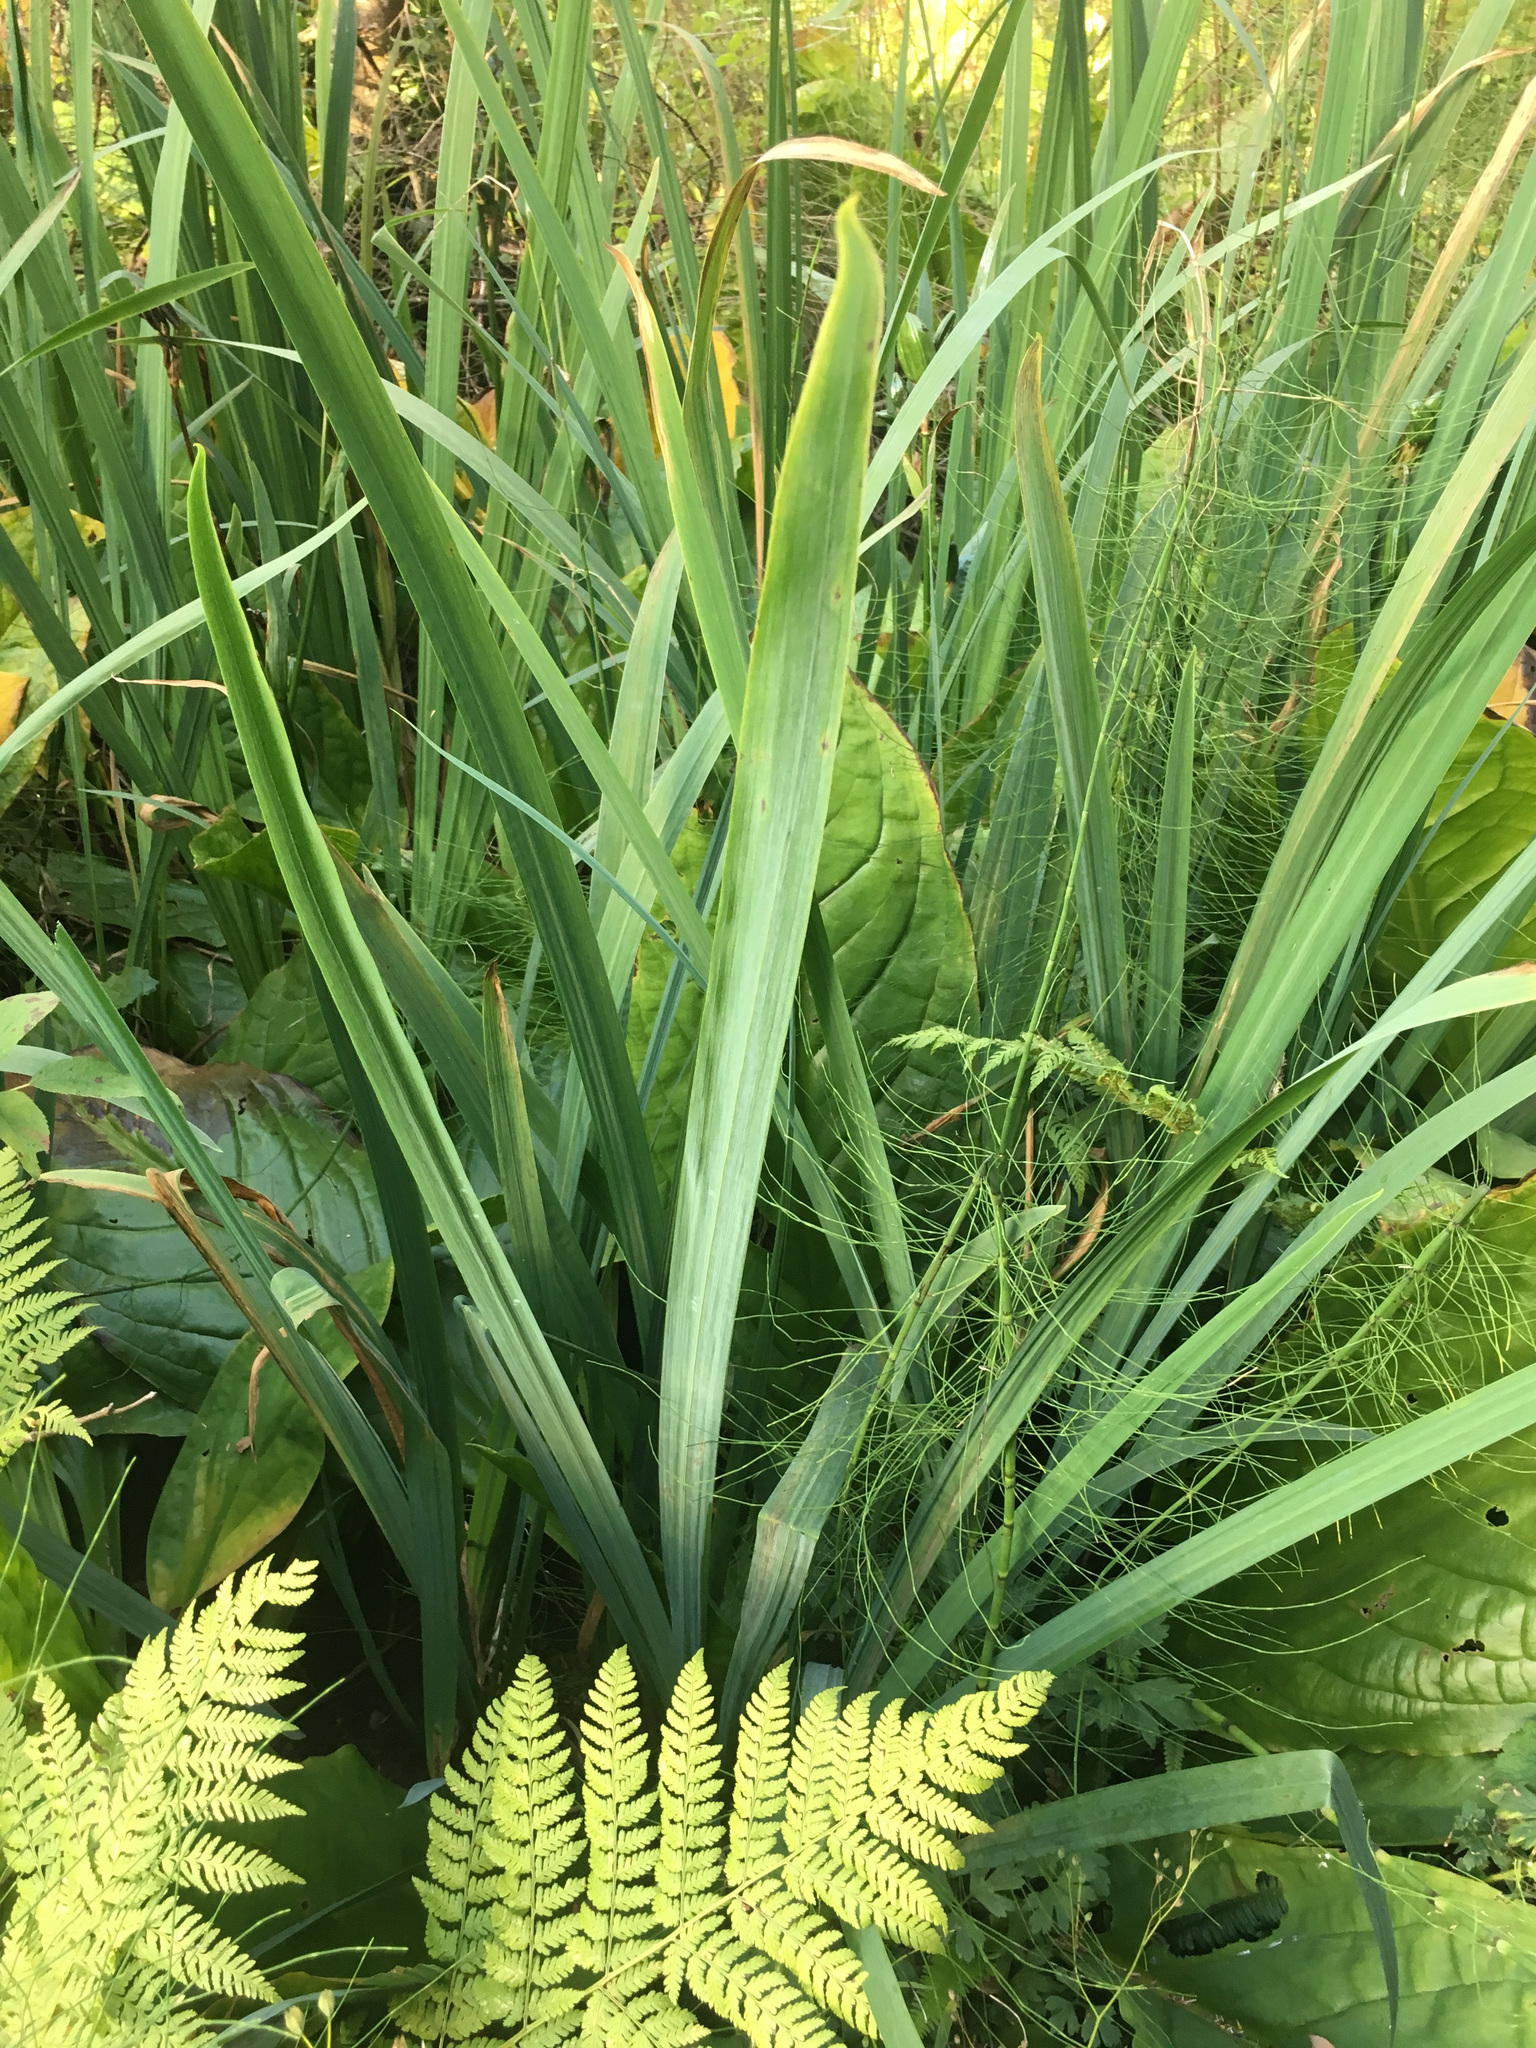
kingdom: Plantae
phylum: Tracheophyta
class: Liliopsida
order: Alismatales
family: Araceae
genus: Lysichiton
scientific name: Lysichiton americanus
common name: American skunk cabbage
